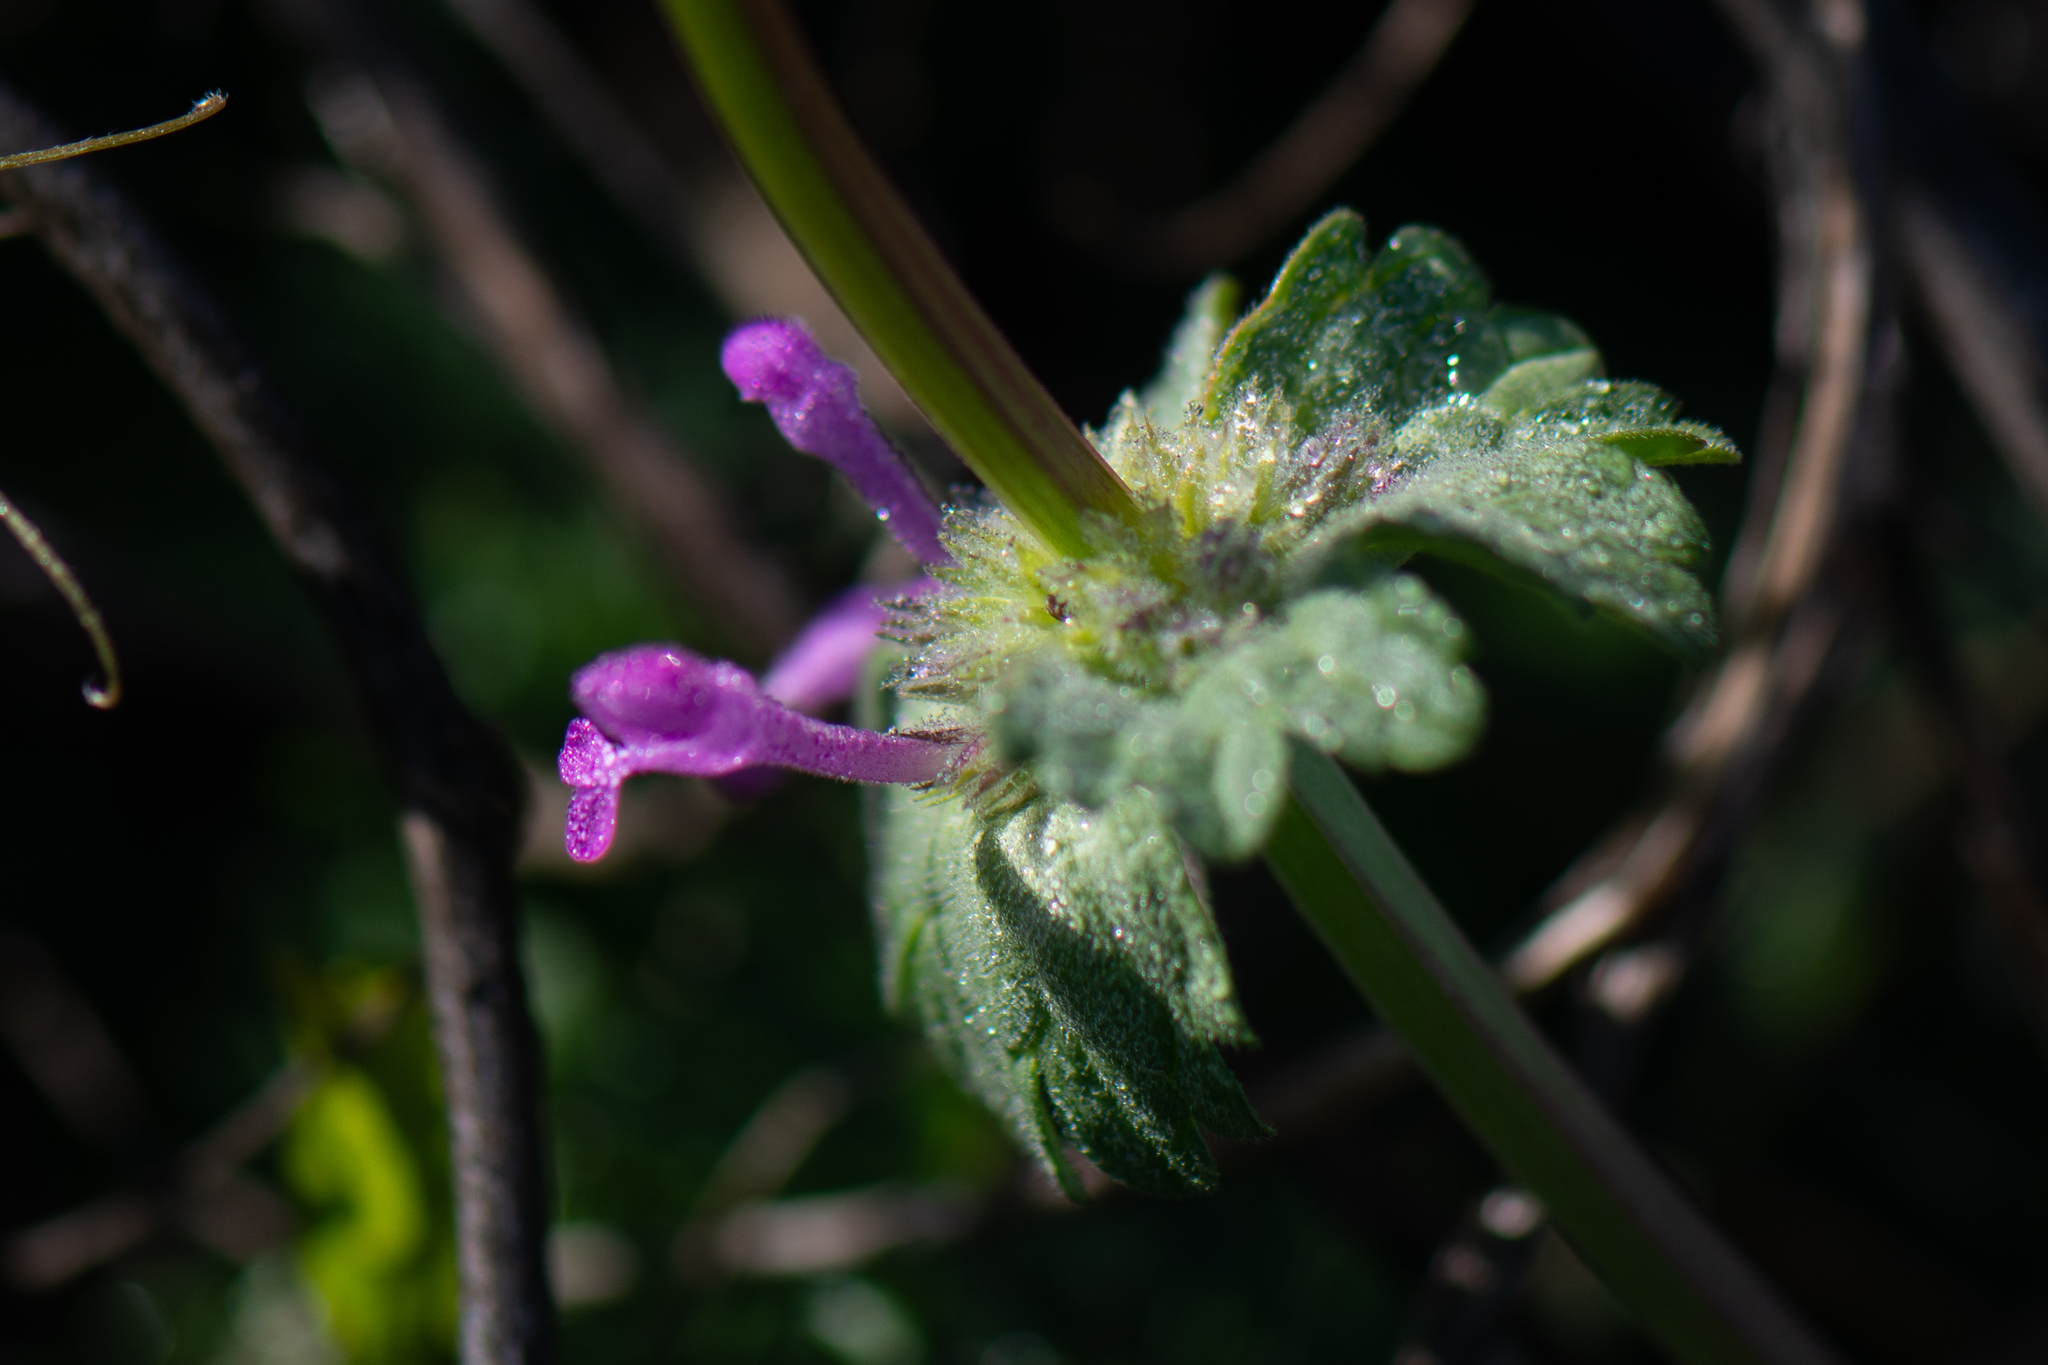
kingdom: Plantae
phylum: Tracheophyta
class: Magnoliopsida
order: Lamiales
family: Lamiaceae
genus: Lamium
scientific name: Lamium amplexicaule
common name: Henbit dead-nettle
